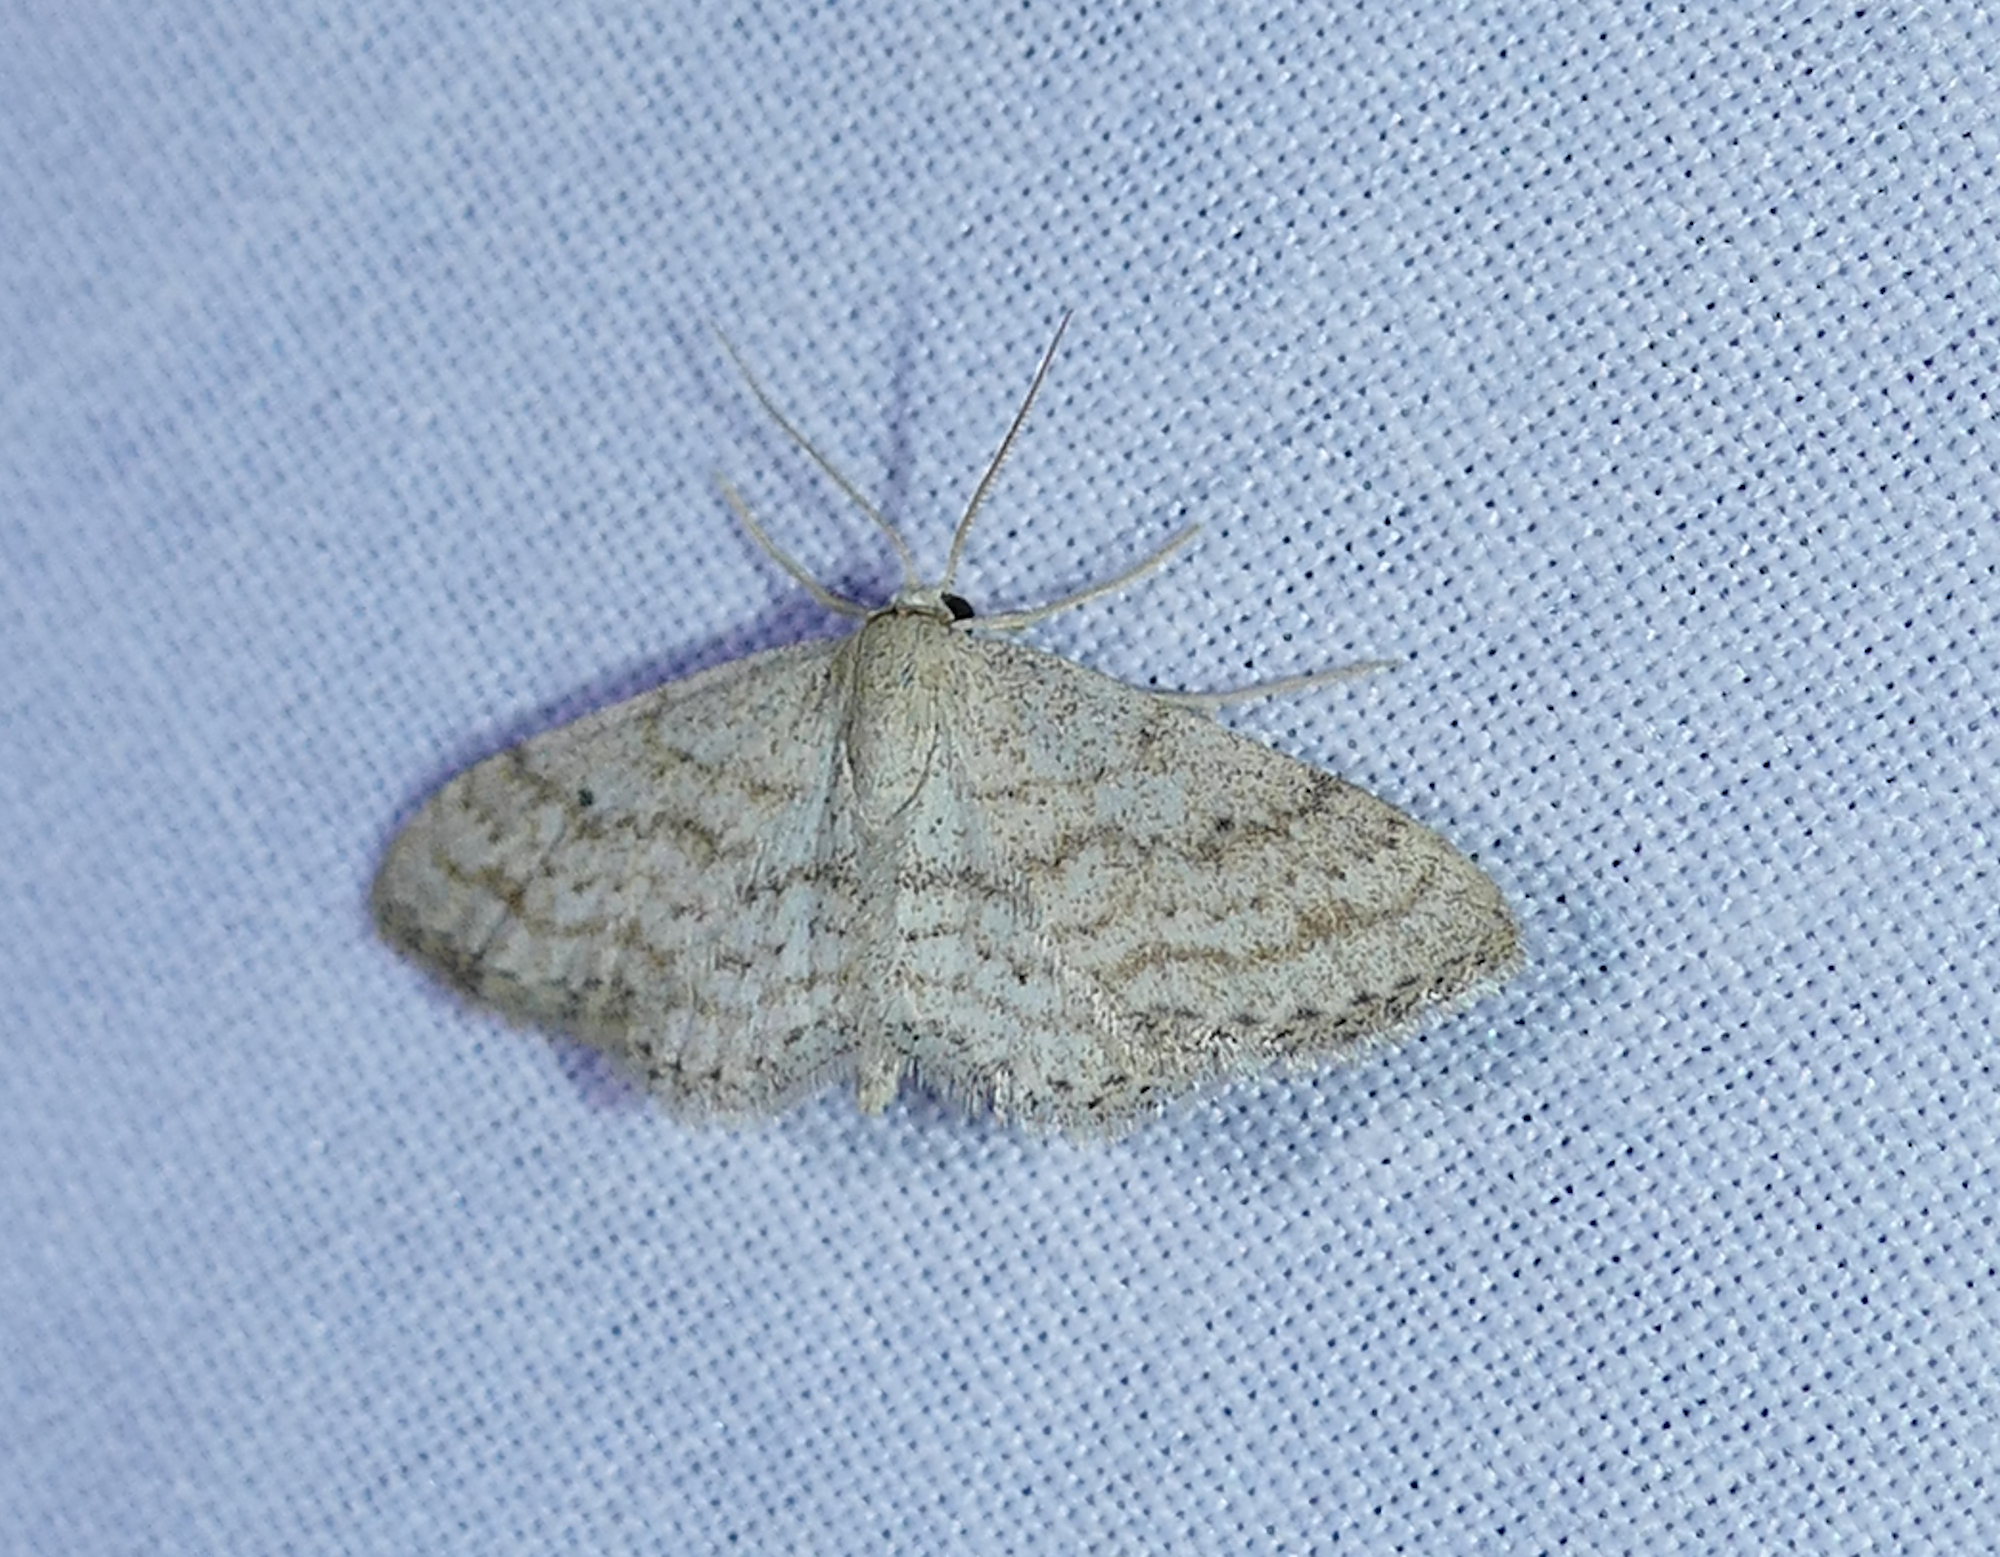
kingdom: Animalia
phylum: Arthropoda
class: Insecta
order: Lepidoptera
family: Geometridae
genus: Lobocleta
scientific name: Lobocleta ossularia
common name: Drab brown wave
